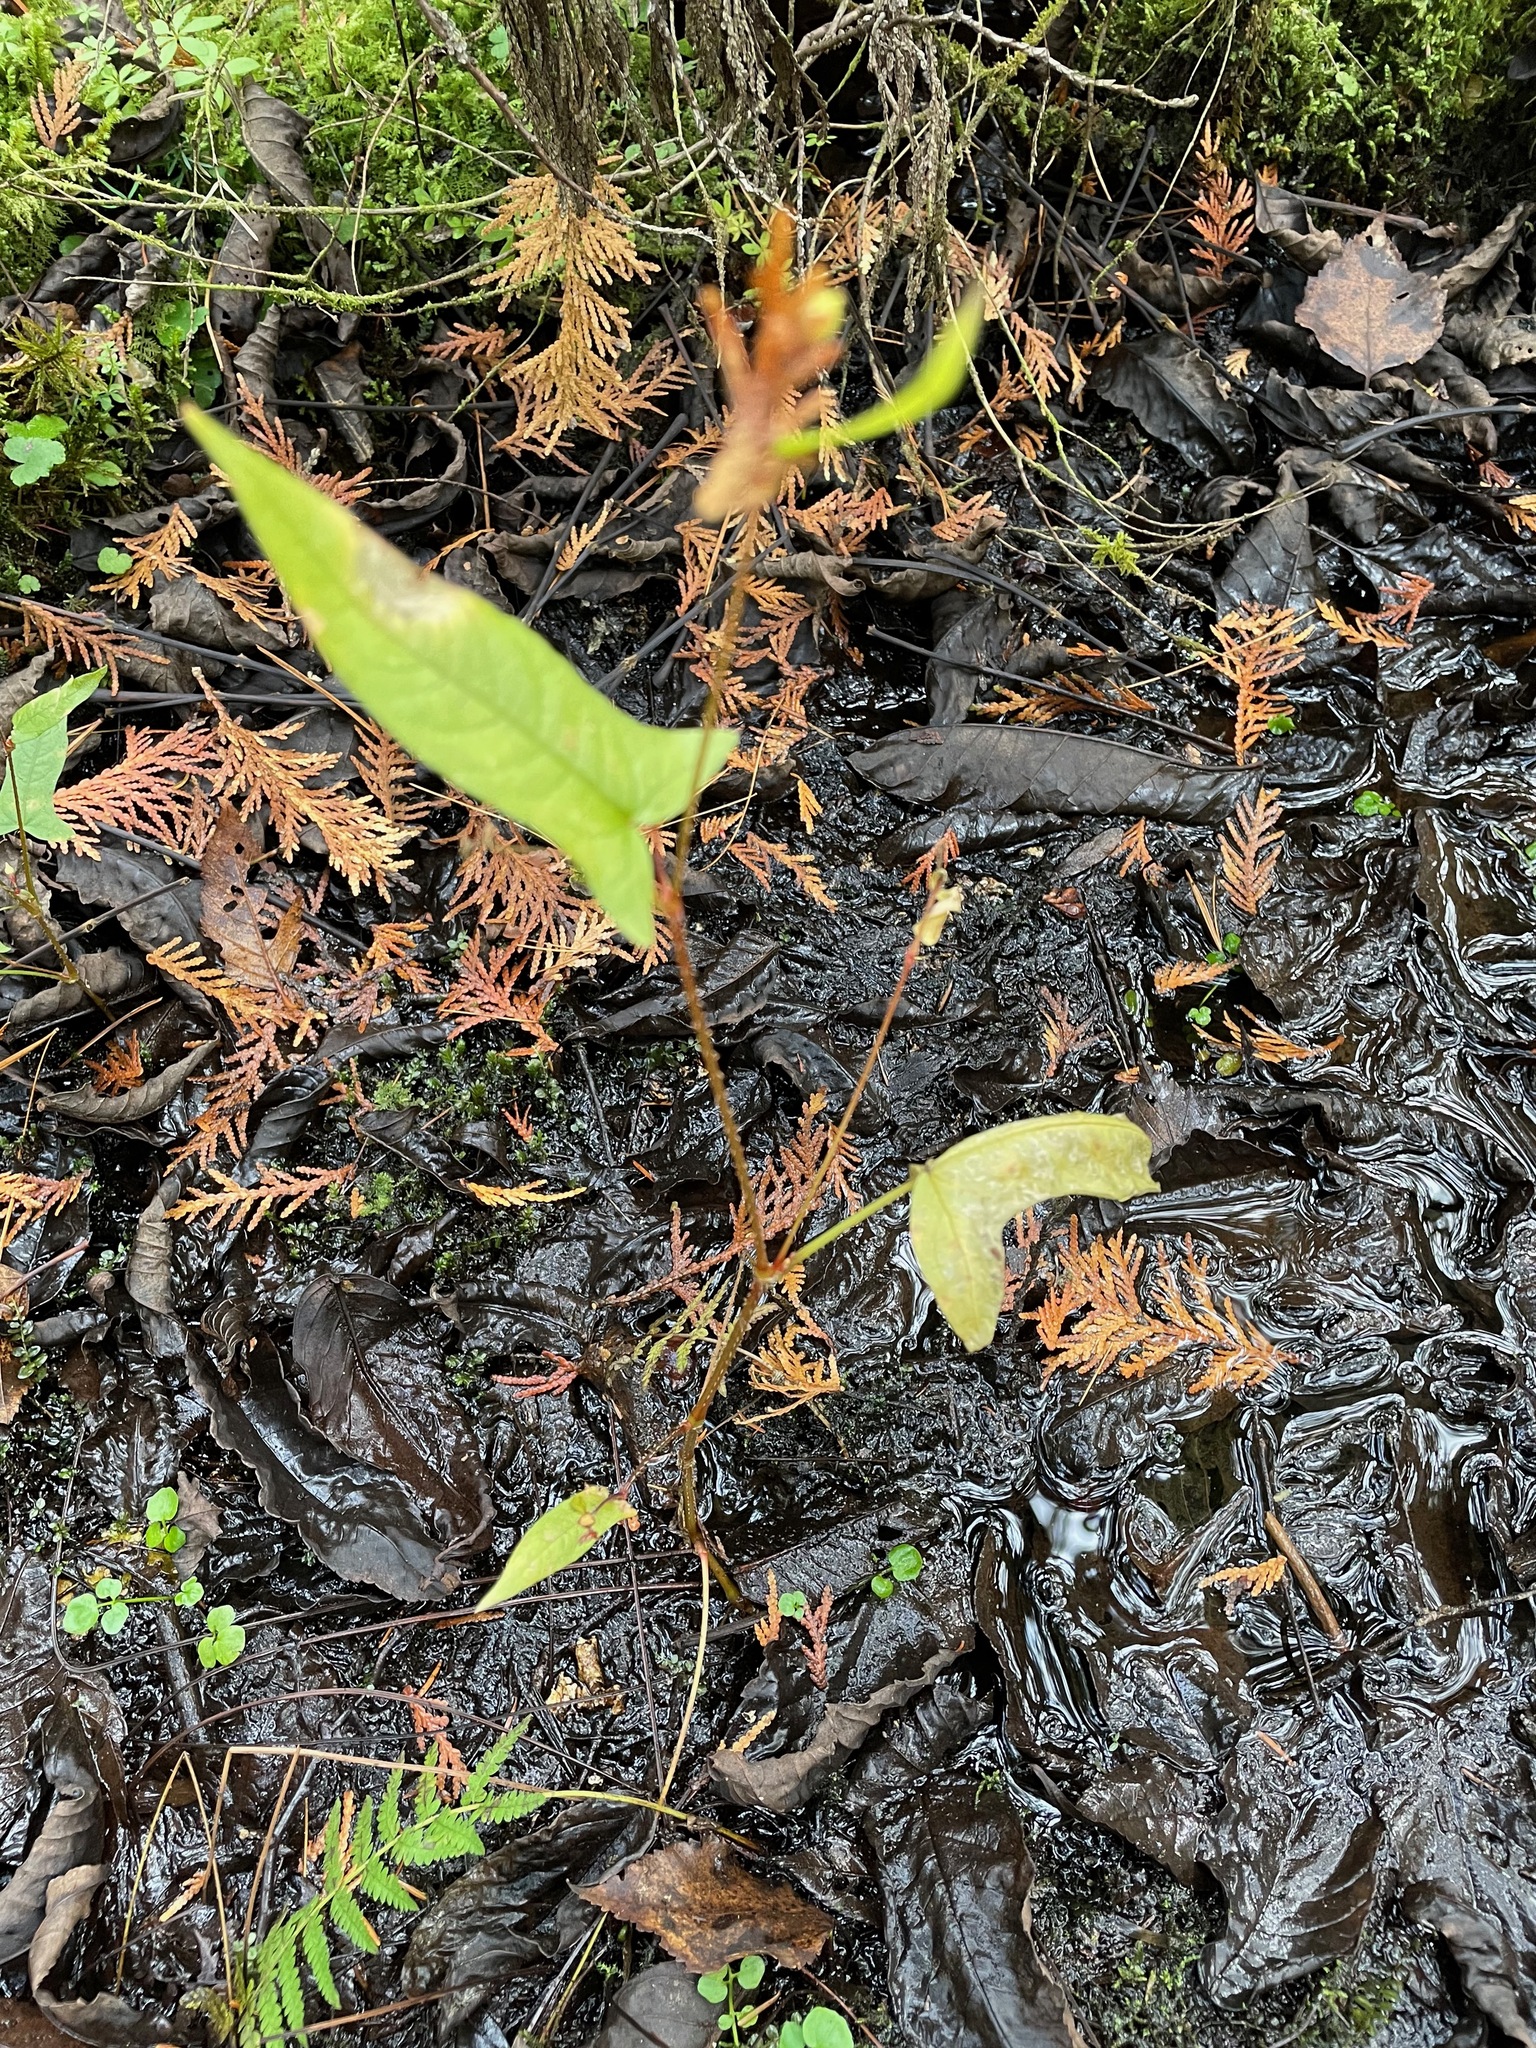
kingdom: Plantae
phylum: Tracheophyta
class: Magnoliopsida
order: Caryophyllales
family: Polygonaceae
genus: Persicaria
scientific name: Persicaria arifolia
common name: Halberd-leaved tear-thumb
